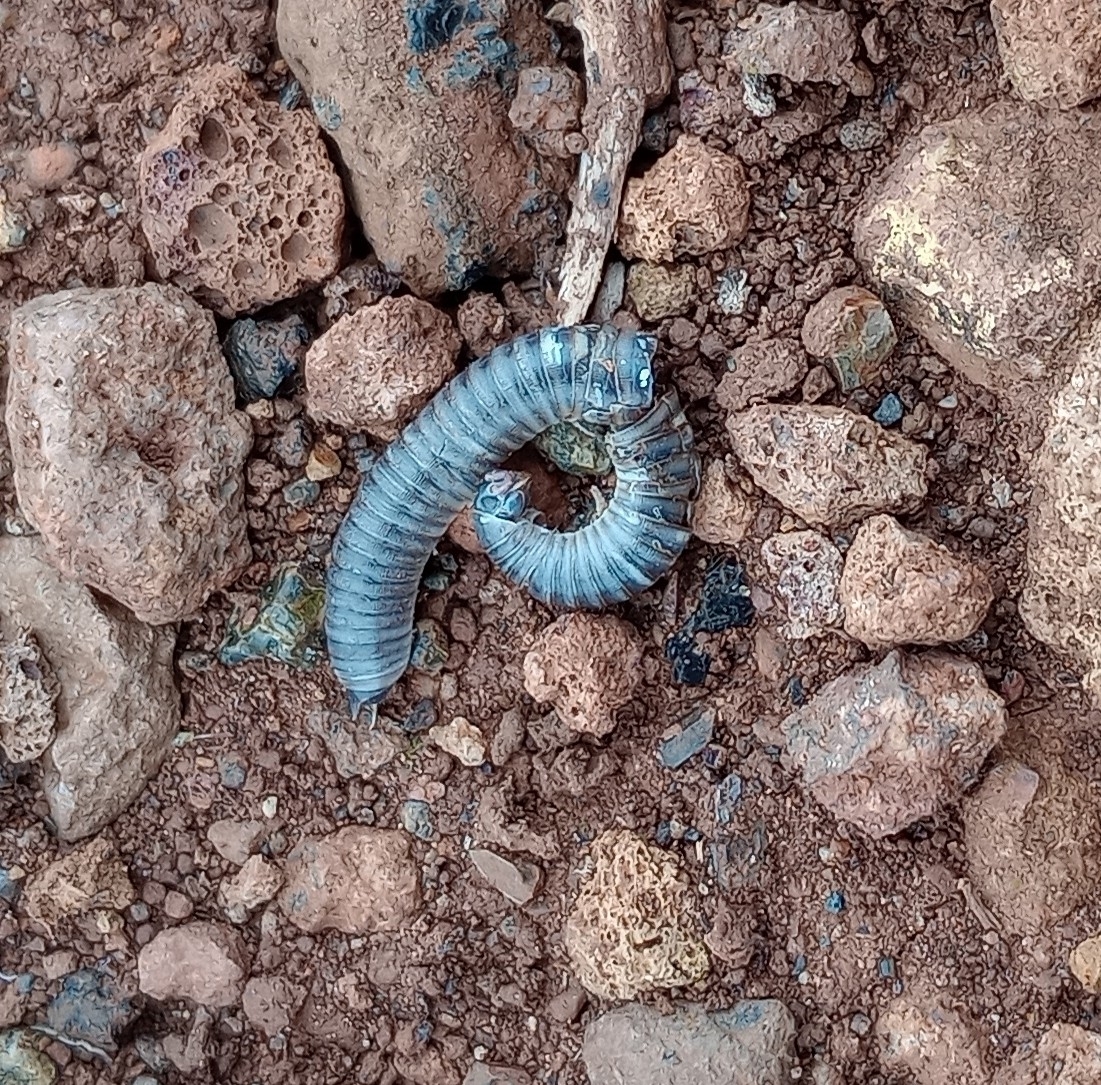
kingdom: Animalia
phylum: Arthropoda
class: Diplopoda
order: Julida
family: Julidae
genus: Ommatoiulus
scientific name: Ommatoiulus moreleti
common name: Portuguese millipede
